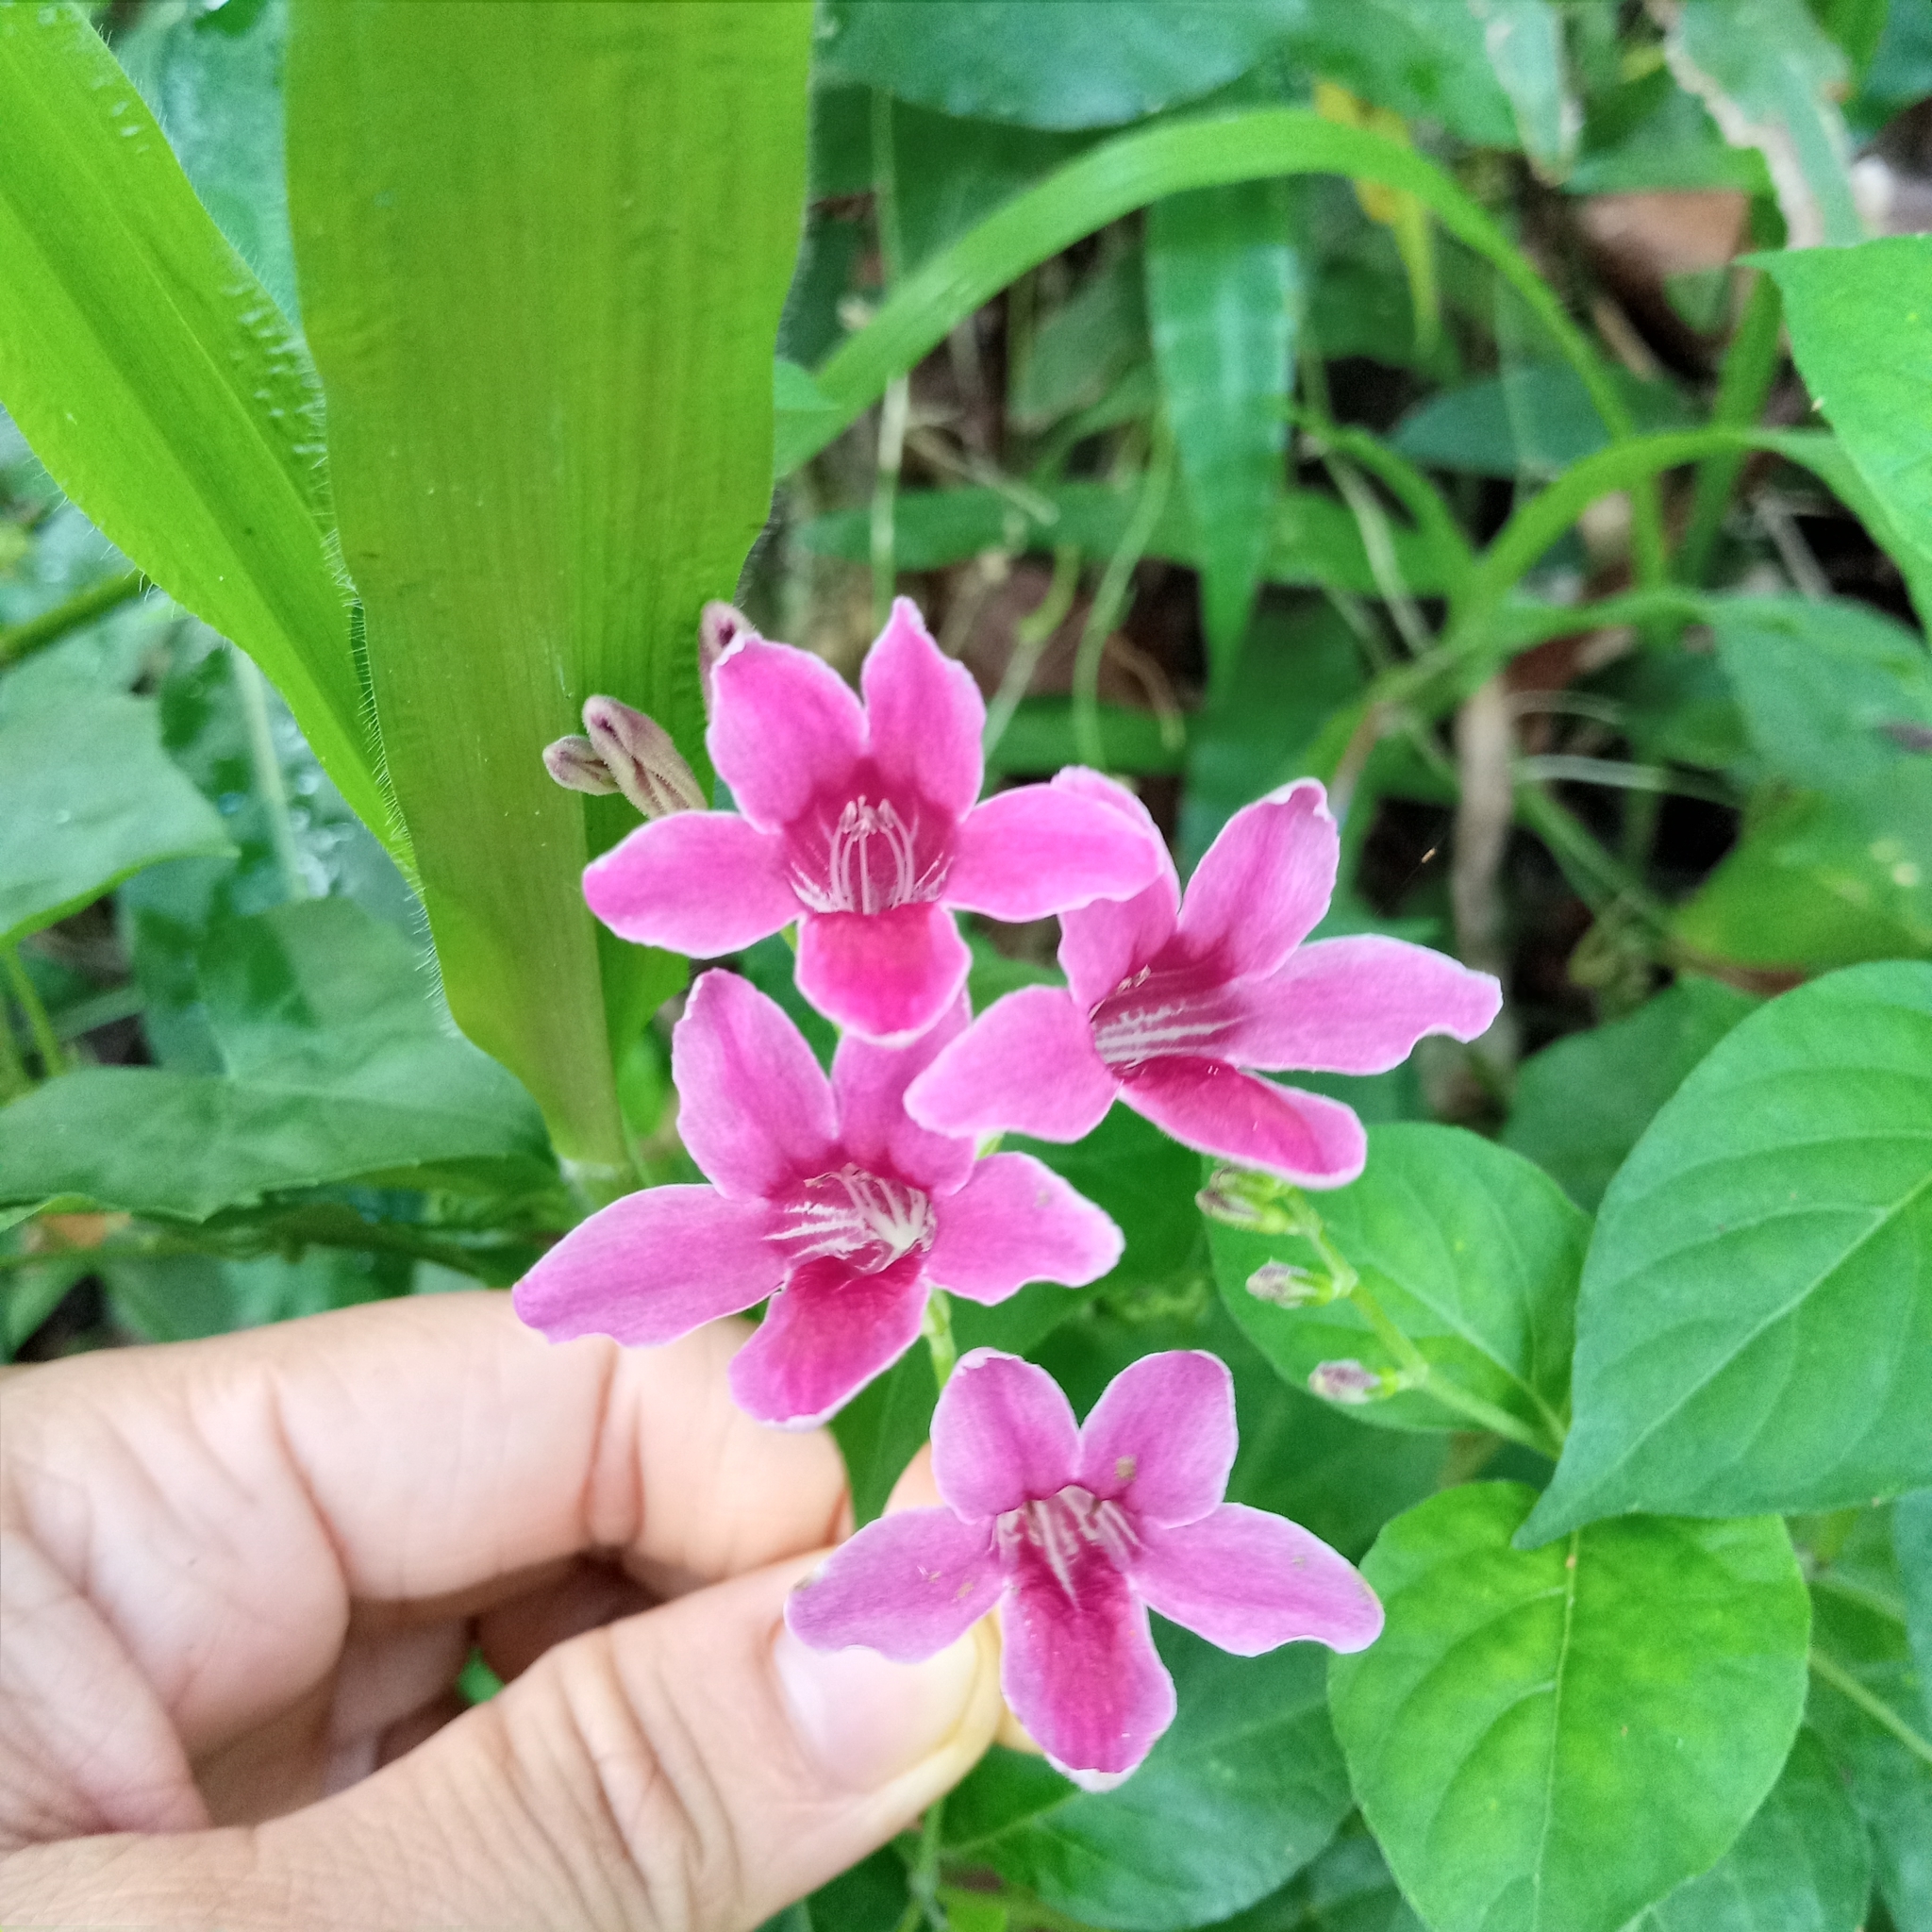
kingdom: Plantae
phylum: Tracheophyta
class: Magnoliopsida
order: Lamiales
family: Acanthaceae
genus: Asystasia
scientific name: Asystasia nemorum
